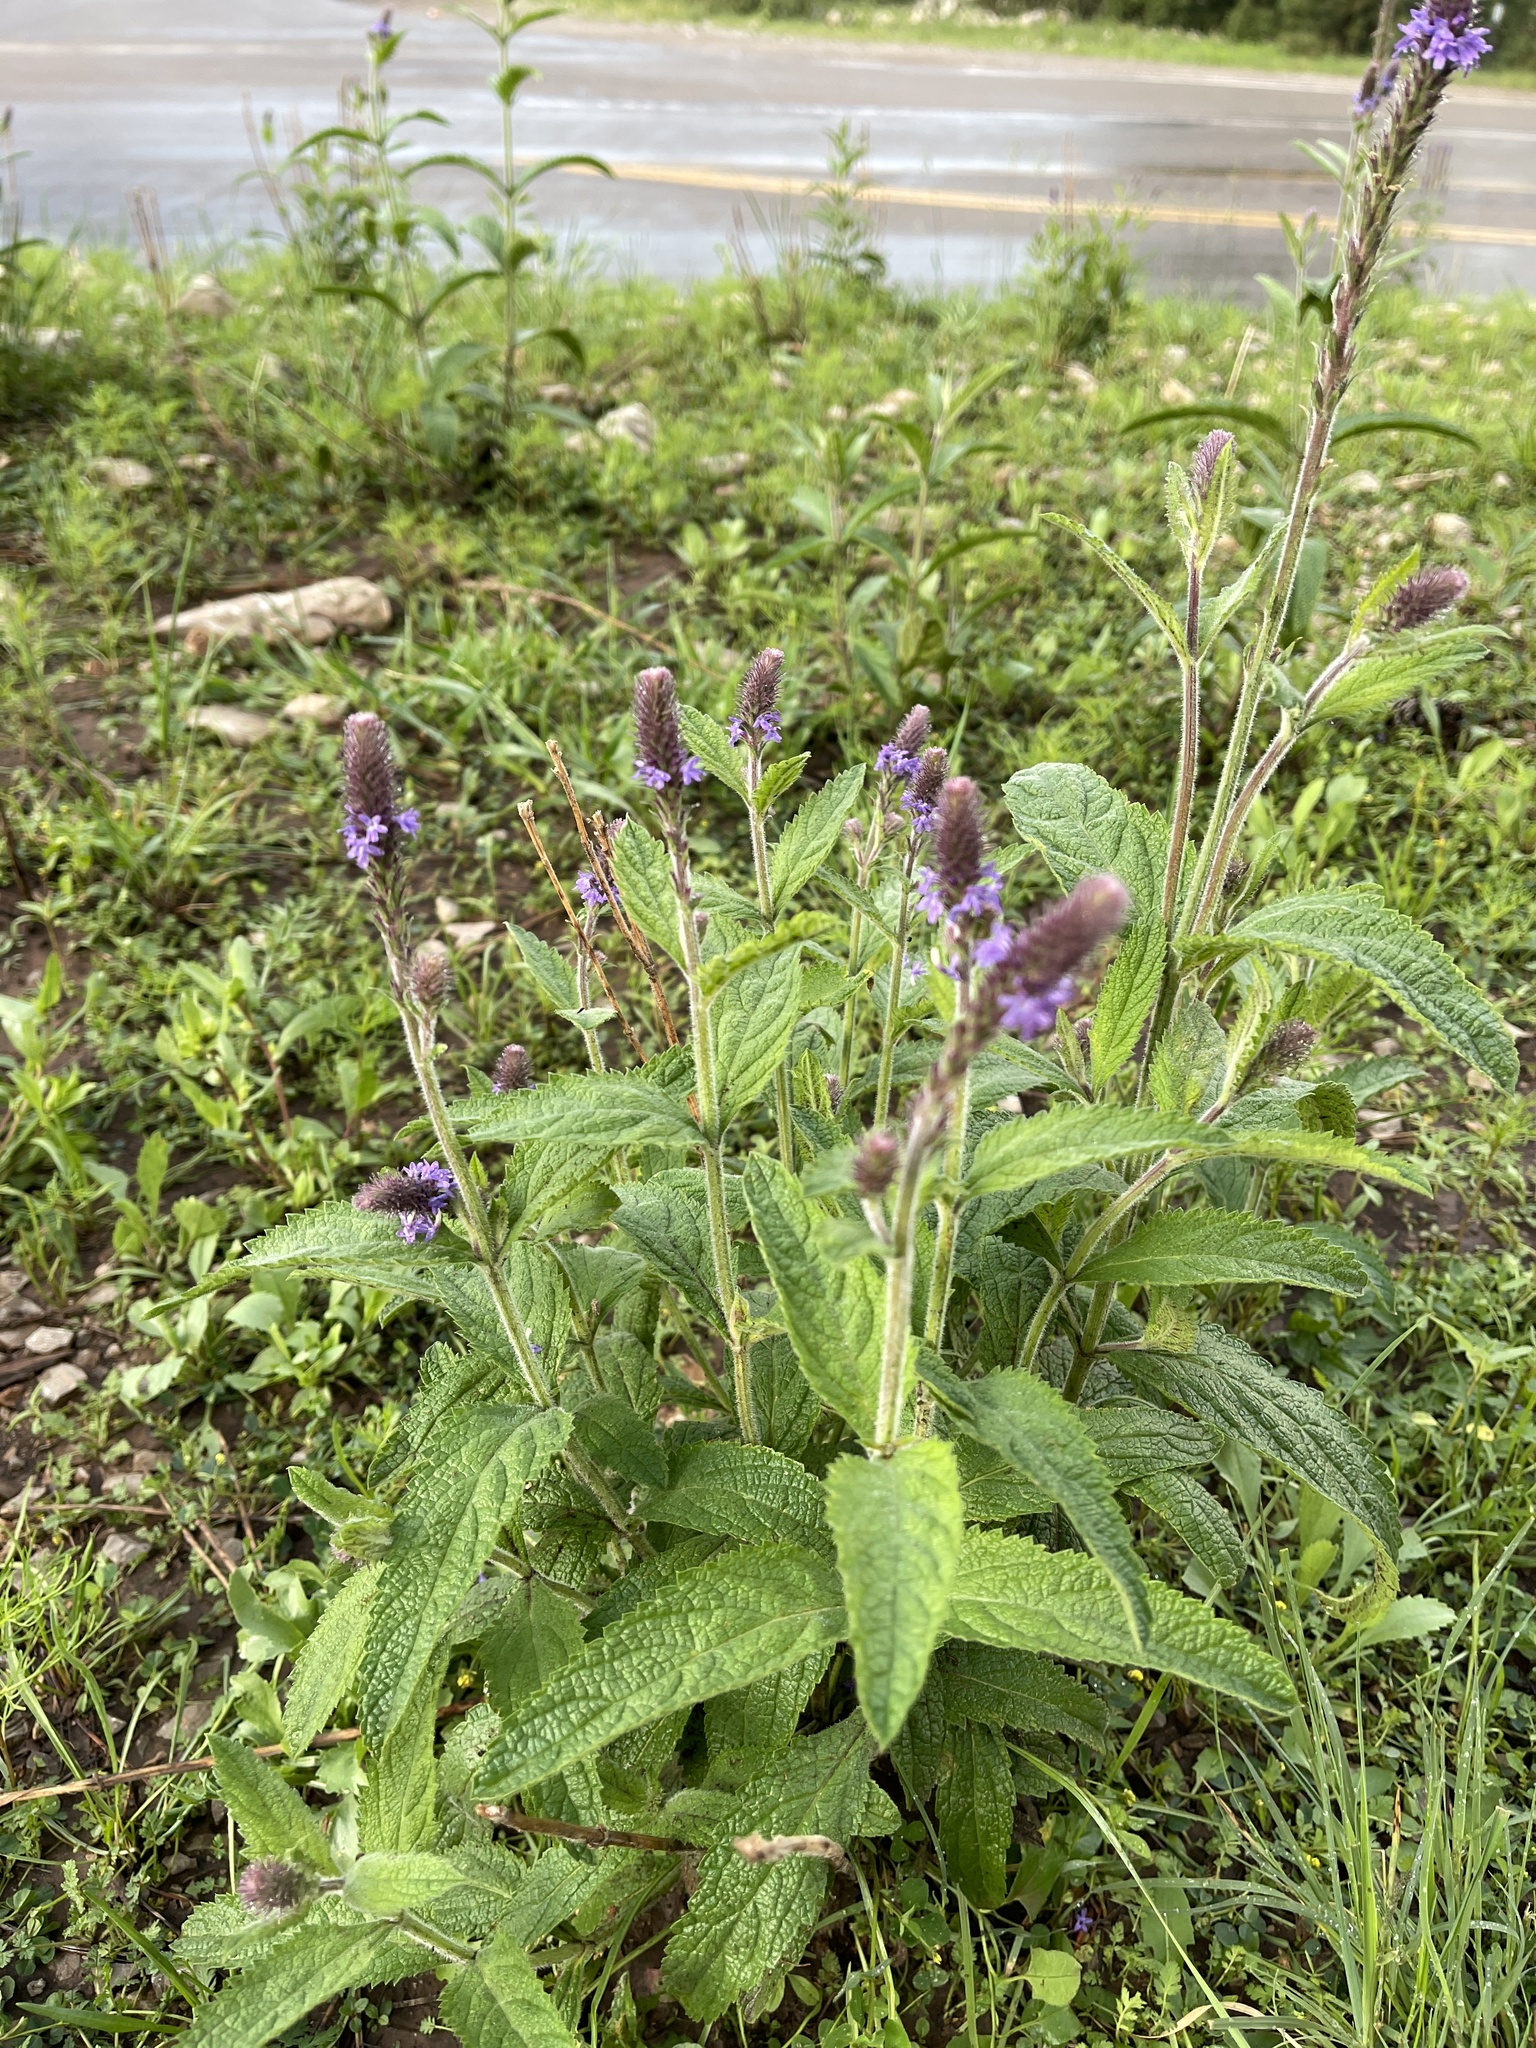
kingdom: Plantae
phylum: Tracheophyta
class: Magnoliopsida
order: Lamiales
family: Verbenaceae
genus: Verbena
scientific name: Verbena macdougalii
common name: New mexico vervain
